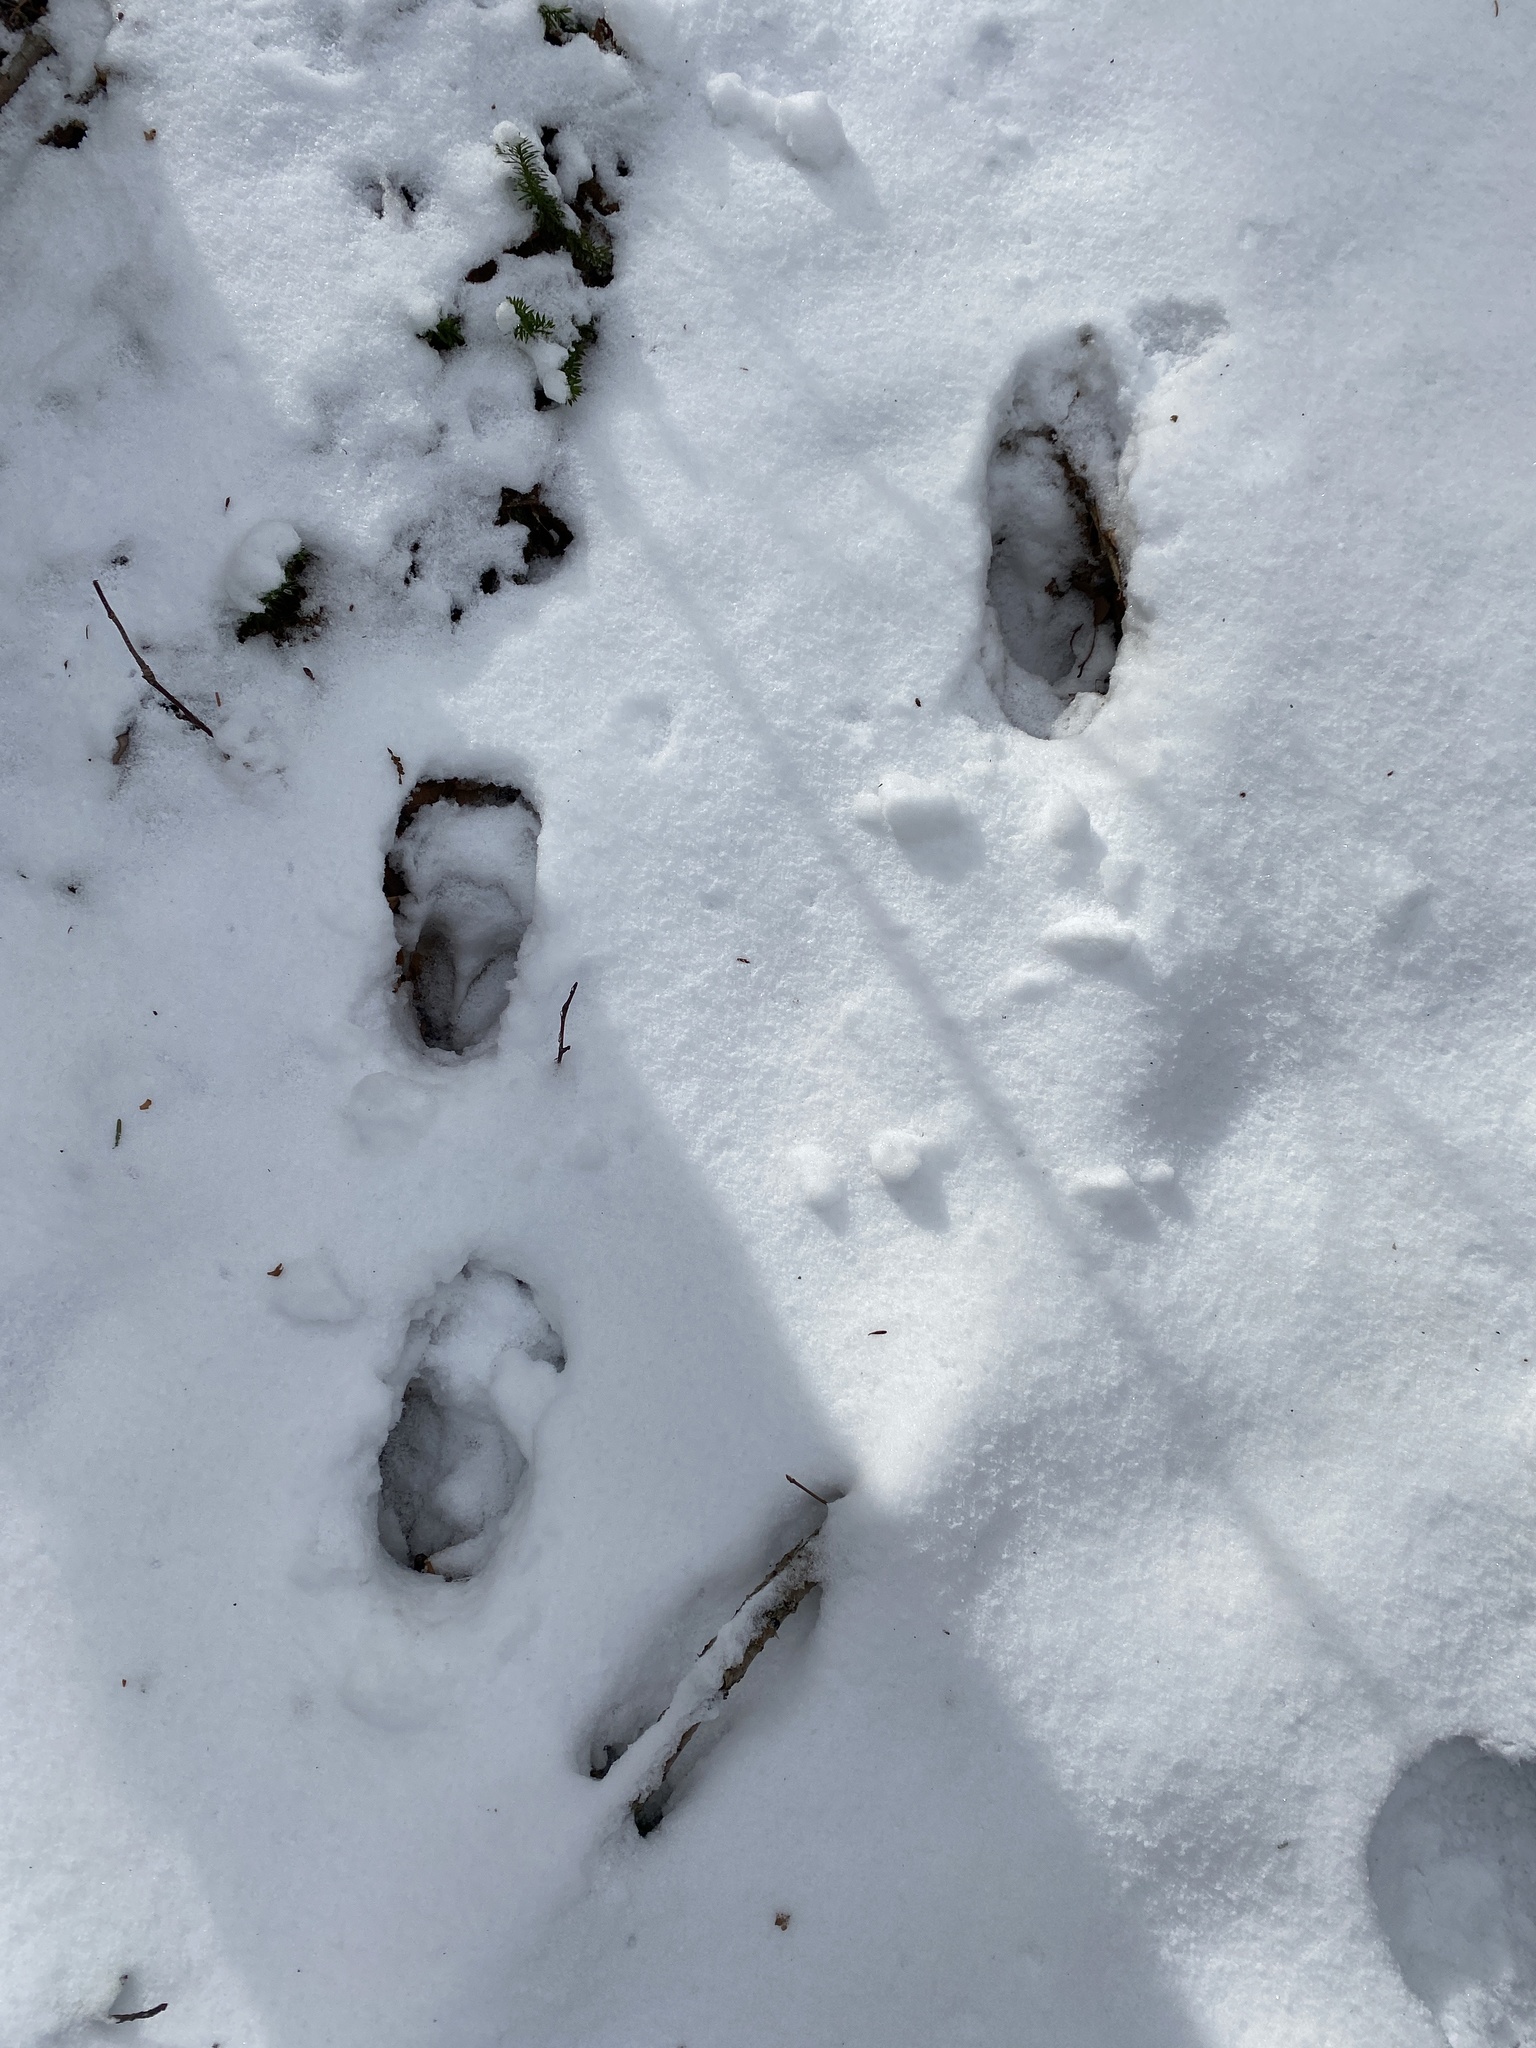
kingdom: Animalia
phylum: Chordata
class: Mammalia
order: Artiodactyla
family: Cervidae
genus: Odocoileus
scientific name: Odocoileus virginianus
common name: White-tailed deer
